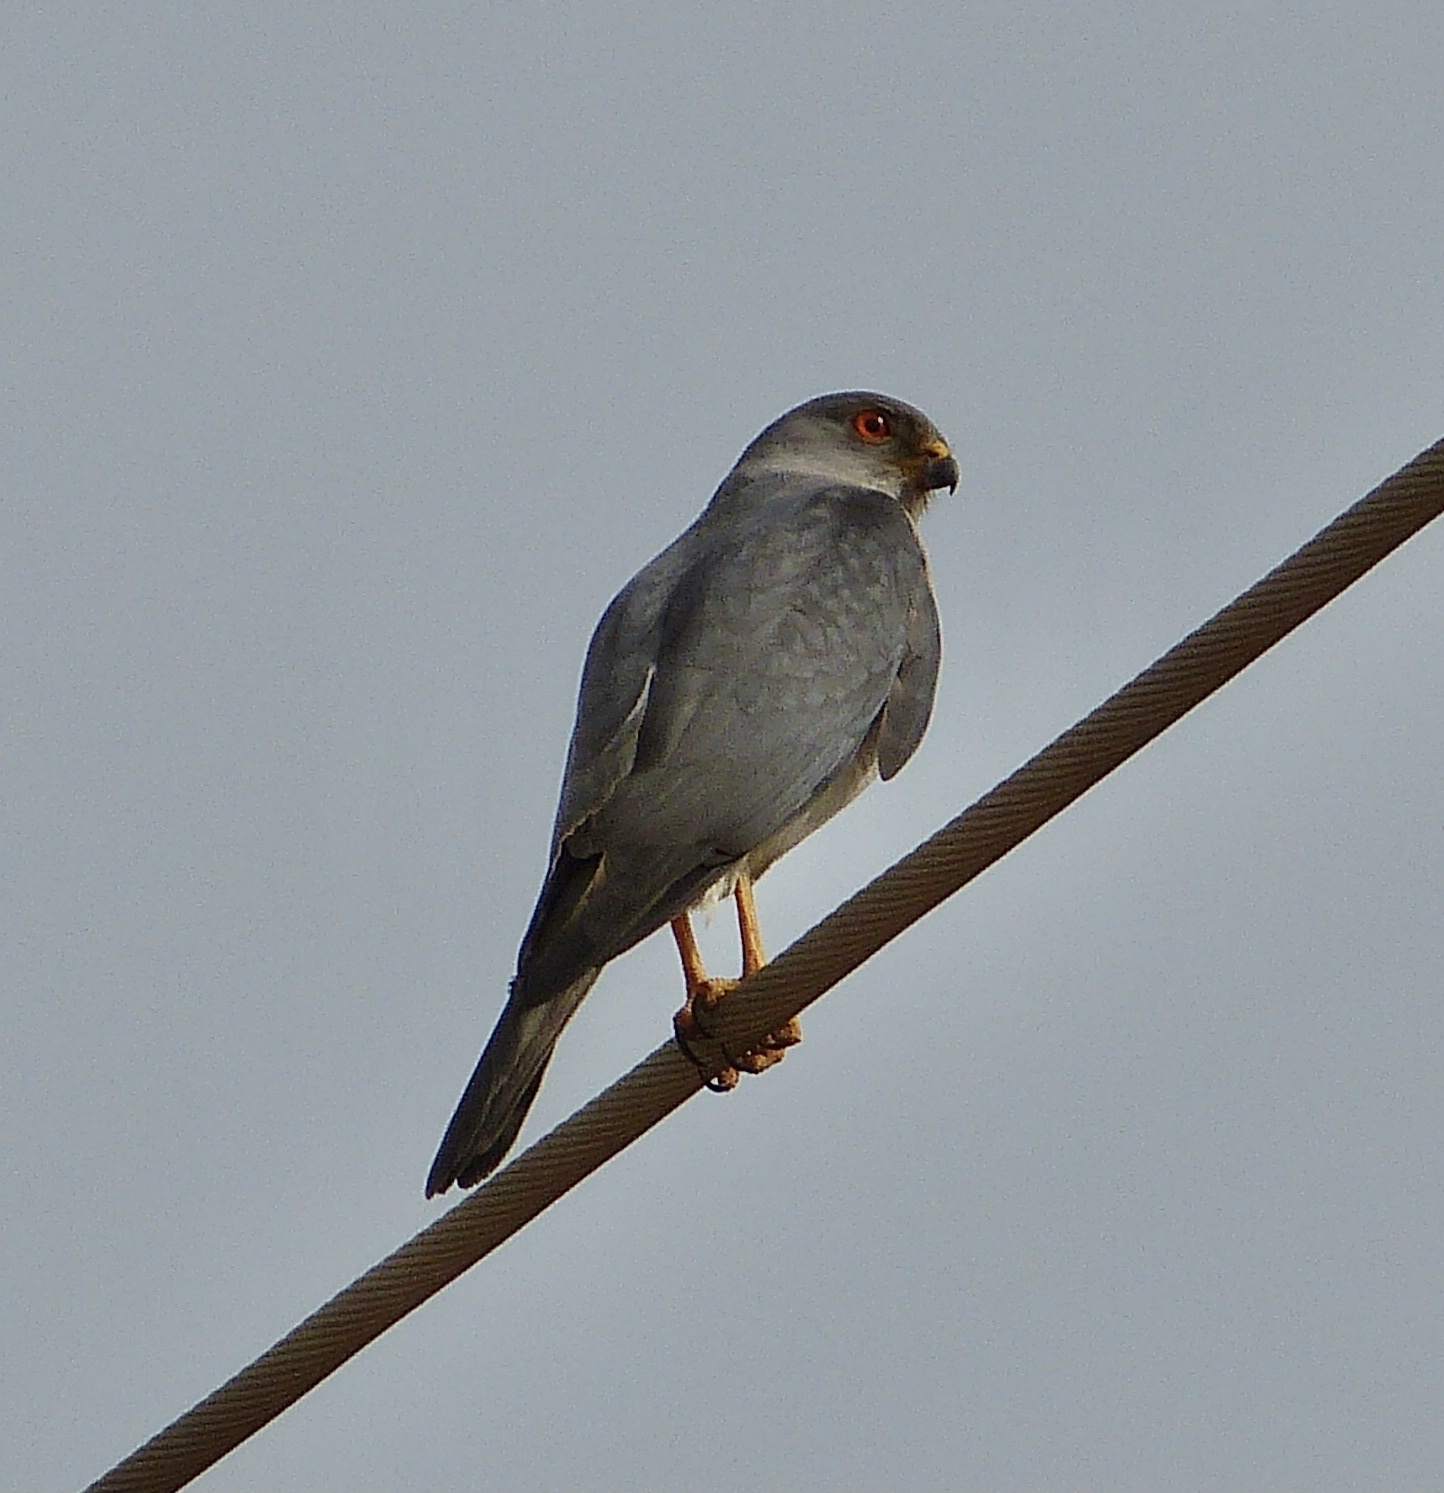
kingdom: Animalia
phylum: Chordata
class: Aves
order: Accipitriformes
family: Accipitridae
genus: Accipiter
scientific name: Accipiter badius
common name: Shikra
